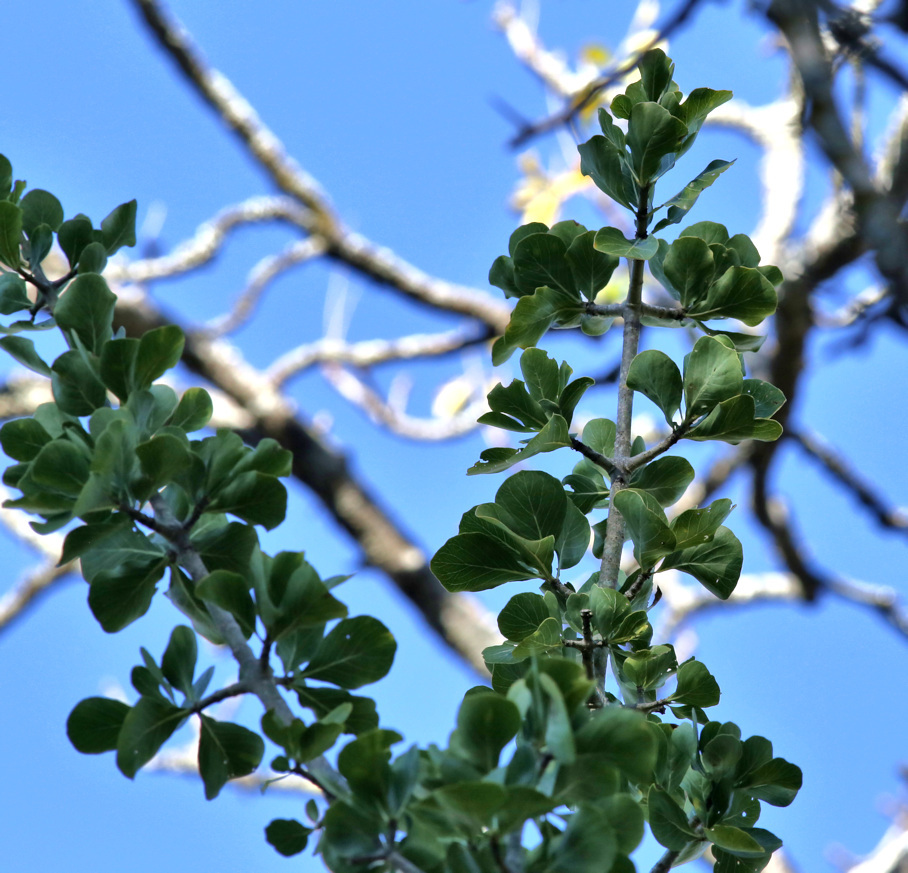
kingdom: Plantae
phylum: Tracheophyta
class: Magnoliopsida
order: Gentianales
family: Rubiaceae
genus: Gardenia
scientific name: Gardenia volkensii
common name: Common gardenia
